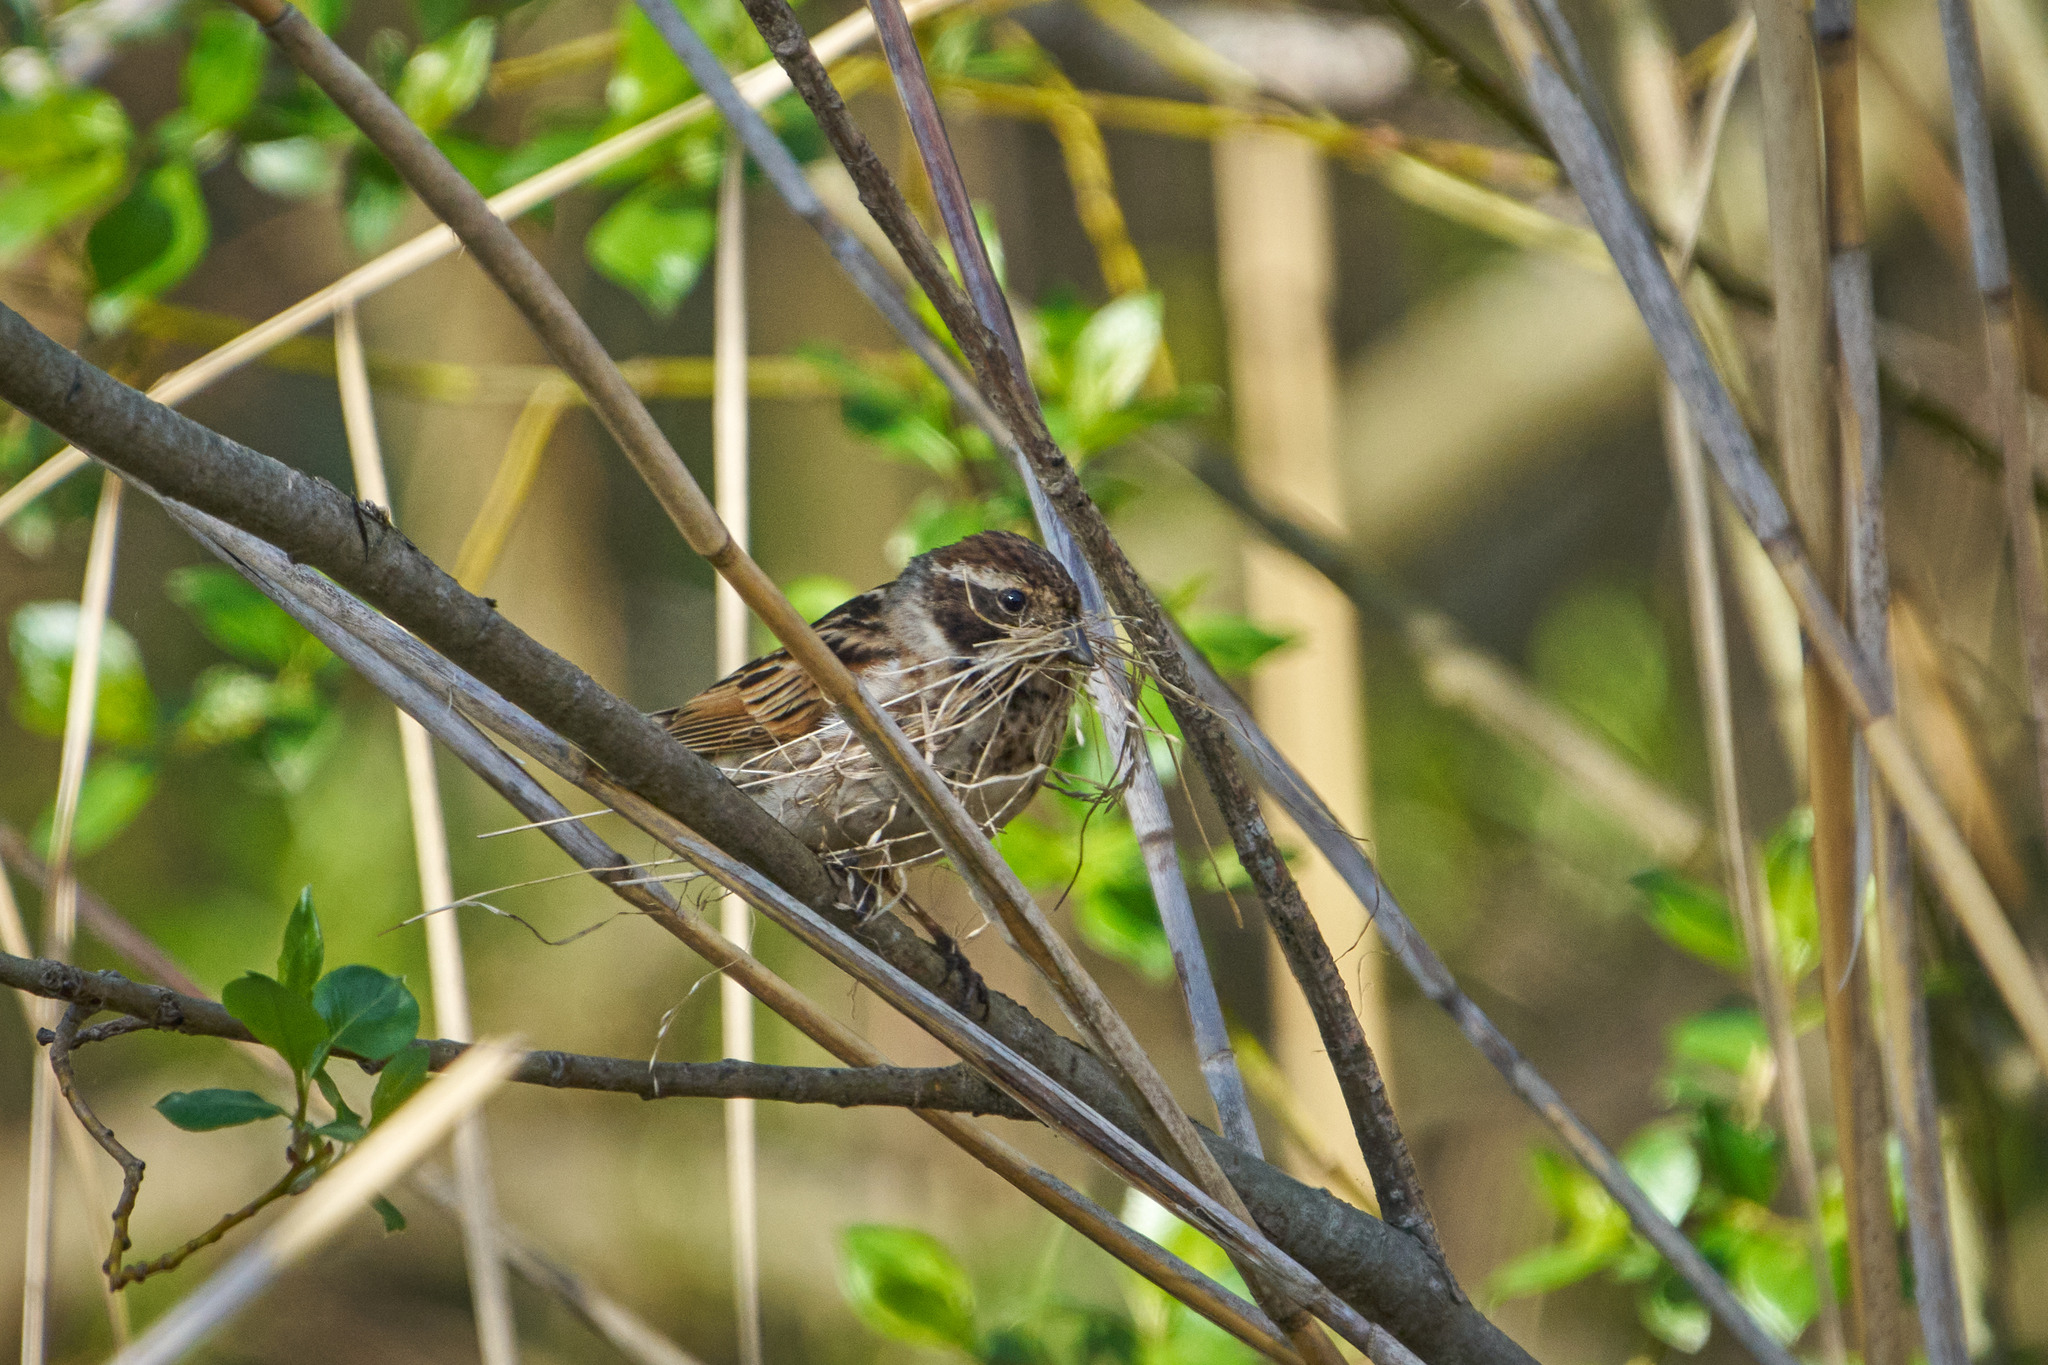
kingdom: Animalia
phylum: Chordata
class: Aves
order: Passeriformes
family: Emberizidae
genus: Emberiza
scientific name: Emberiza schoeniclus
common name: Reed bunting
